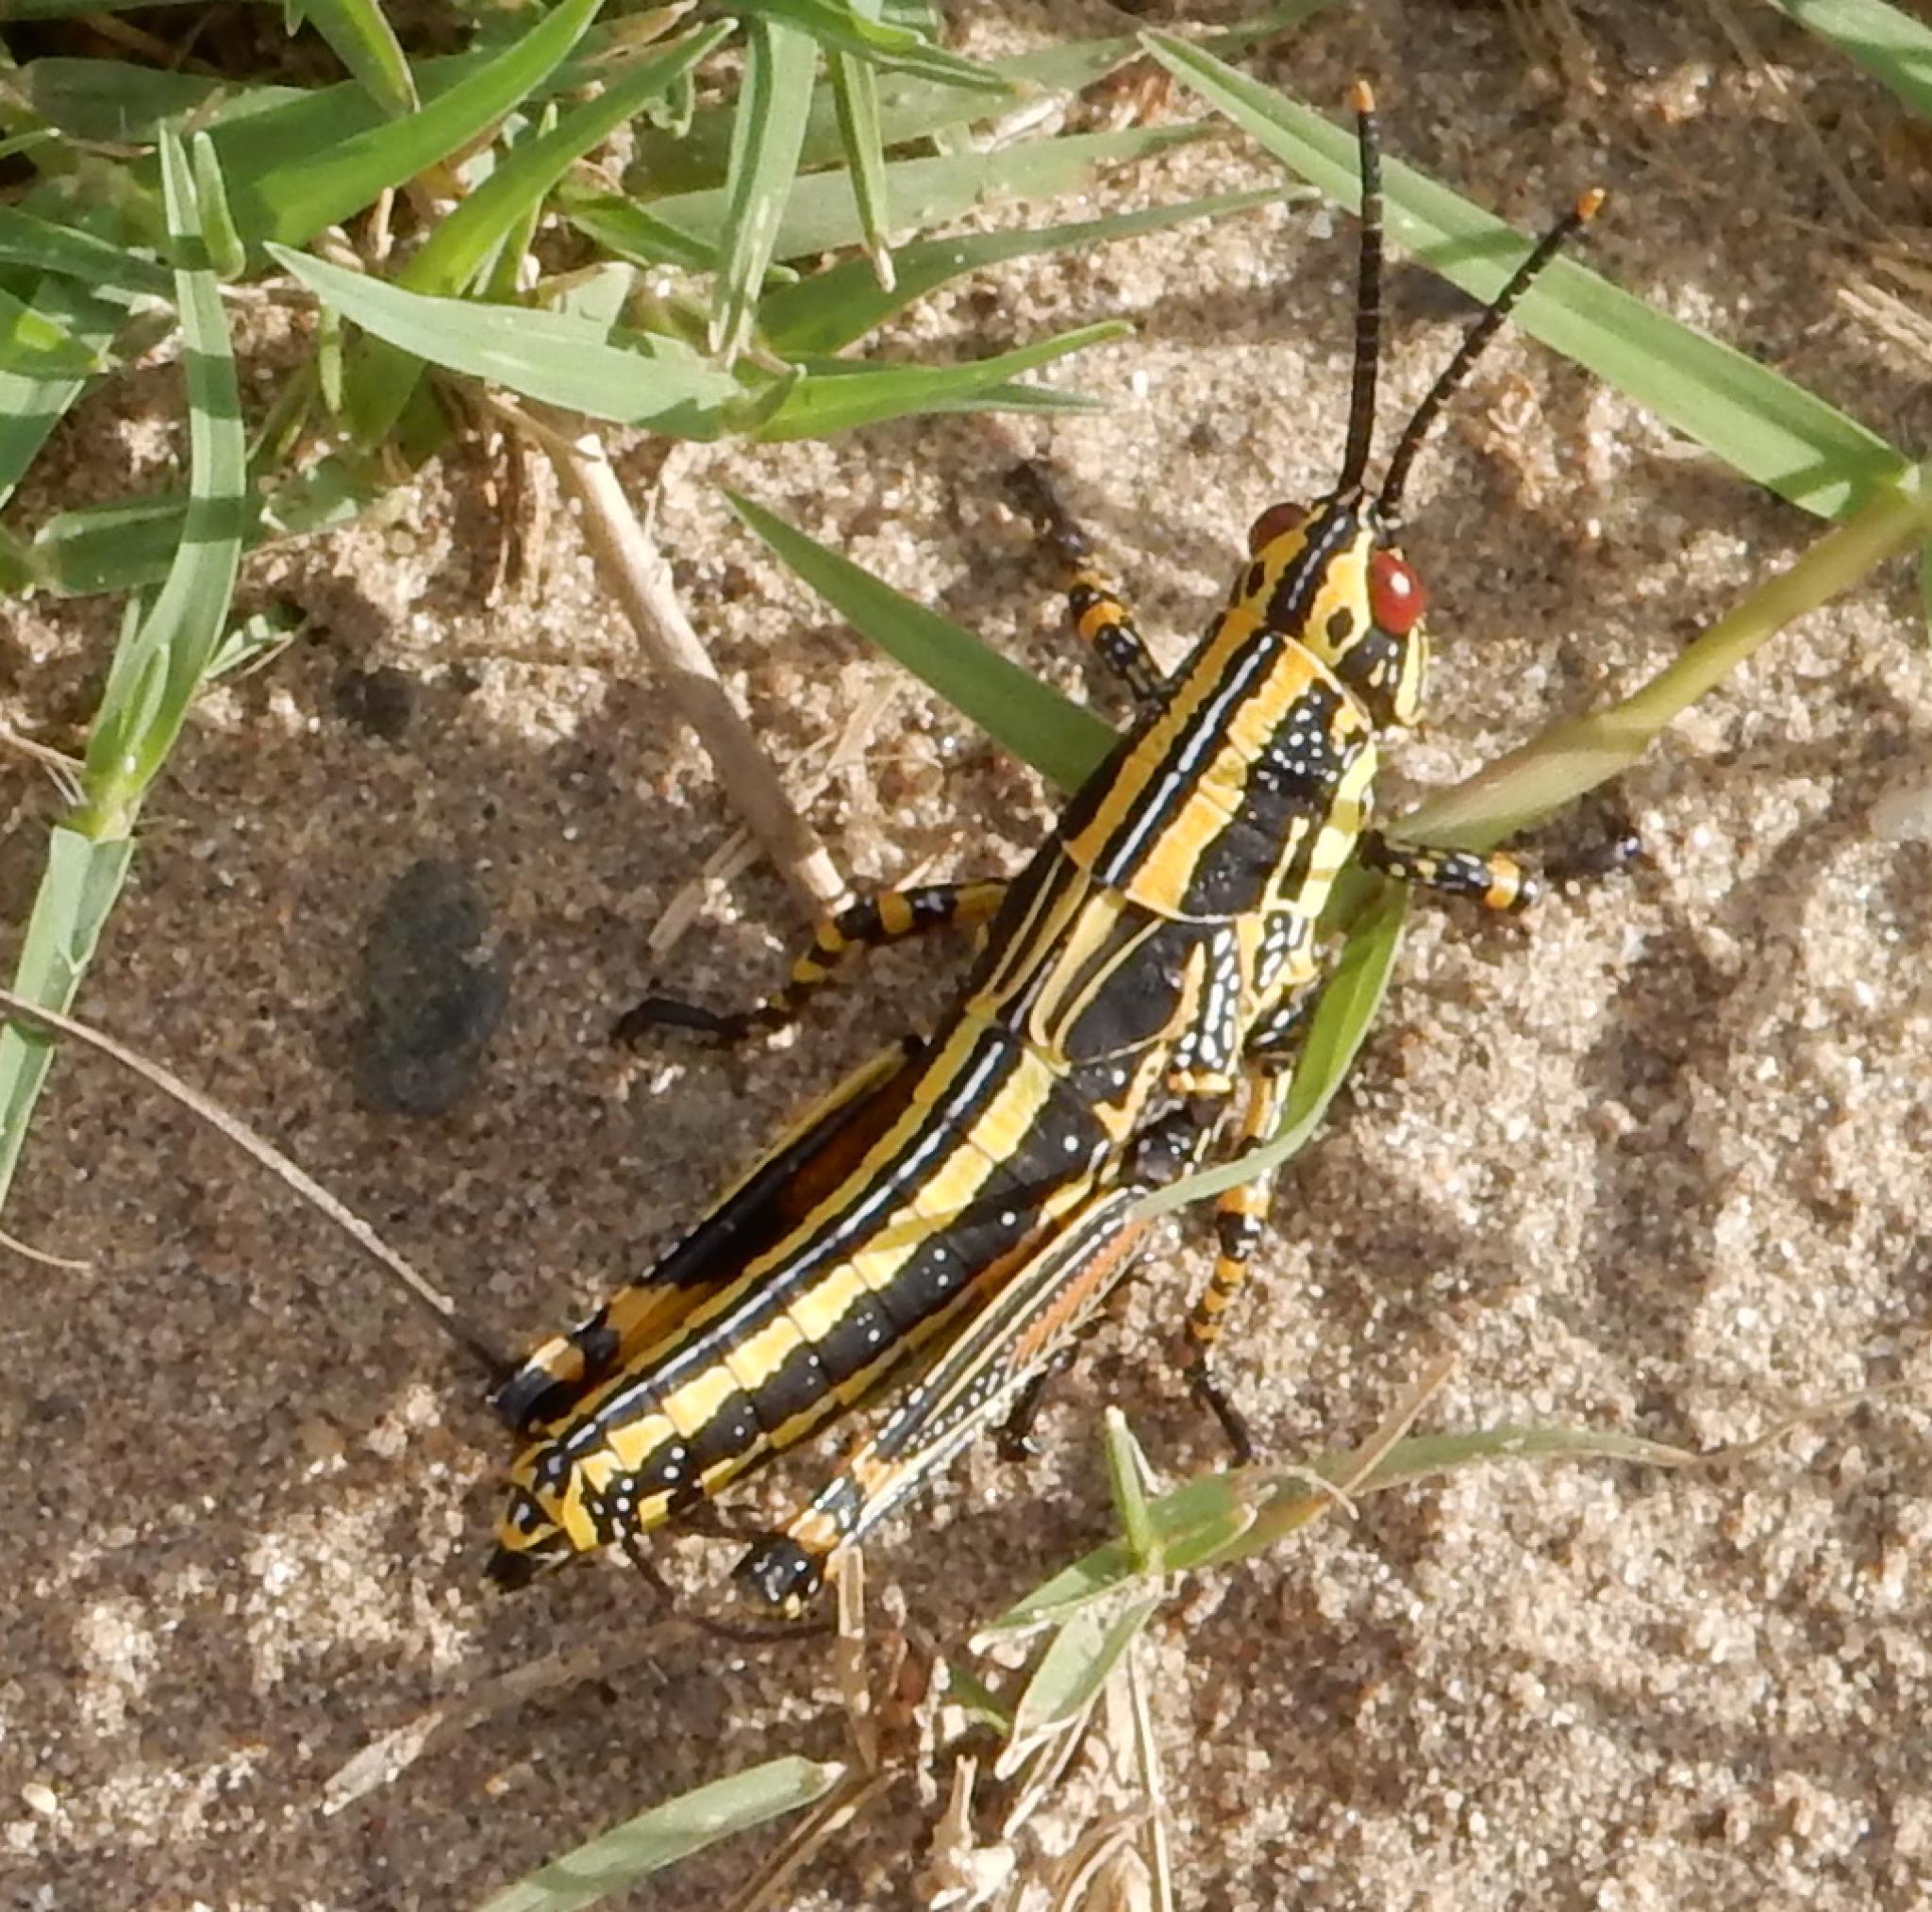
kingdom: Animalia
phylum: Arthropoda
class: Insecta
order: Orthoptera
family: Pyrgomorphidae
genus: Zonocerus
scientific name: Zonocerus elegans
